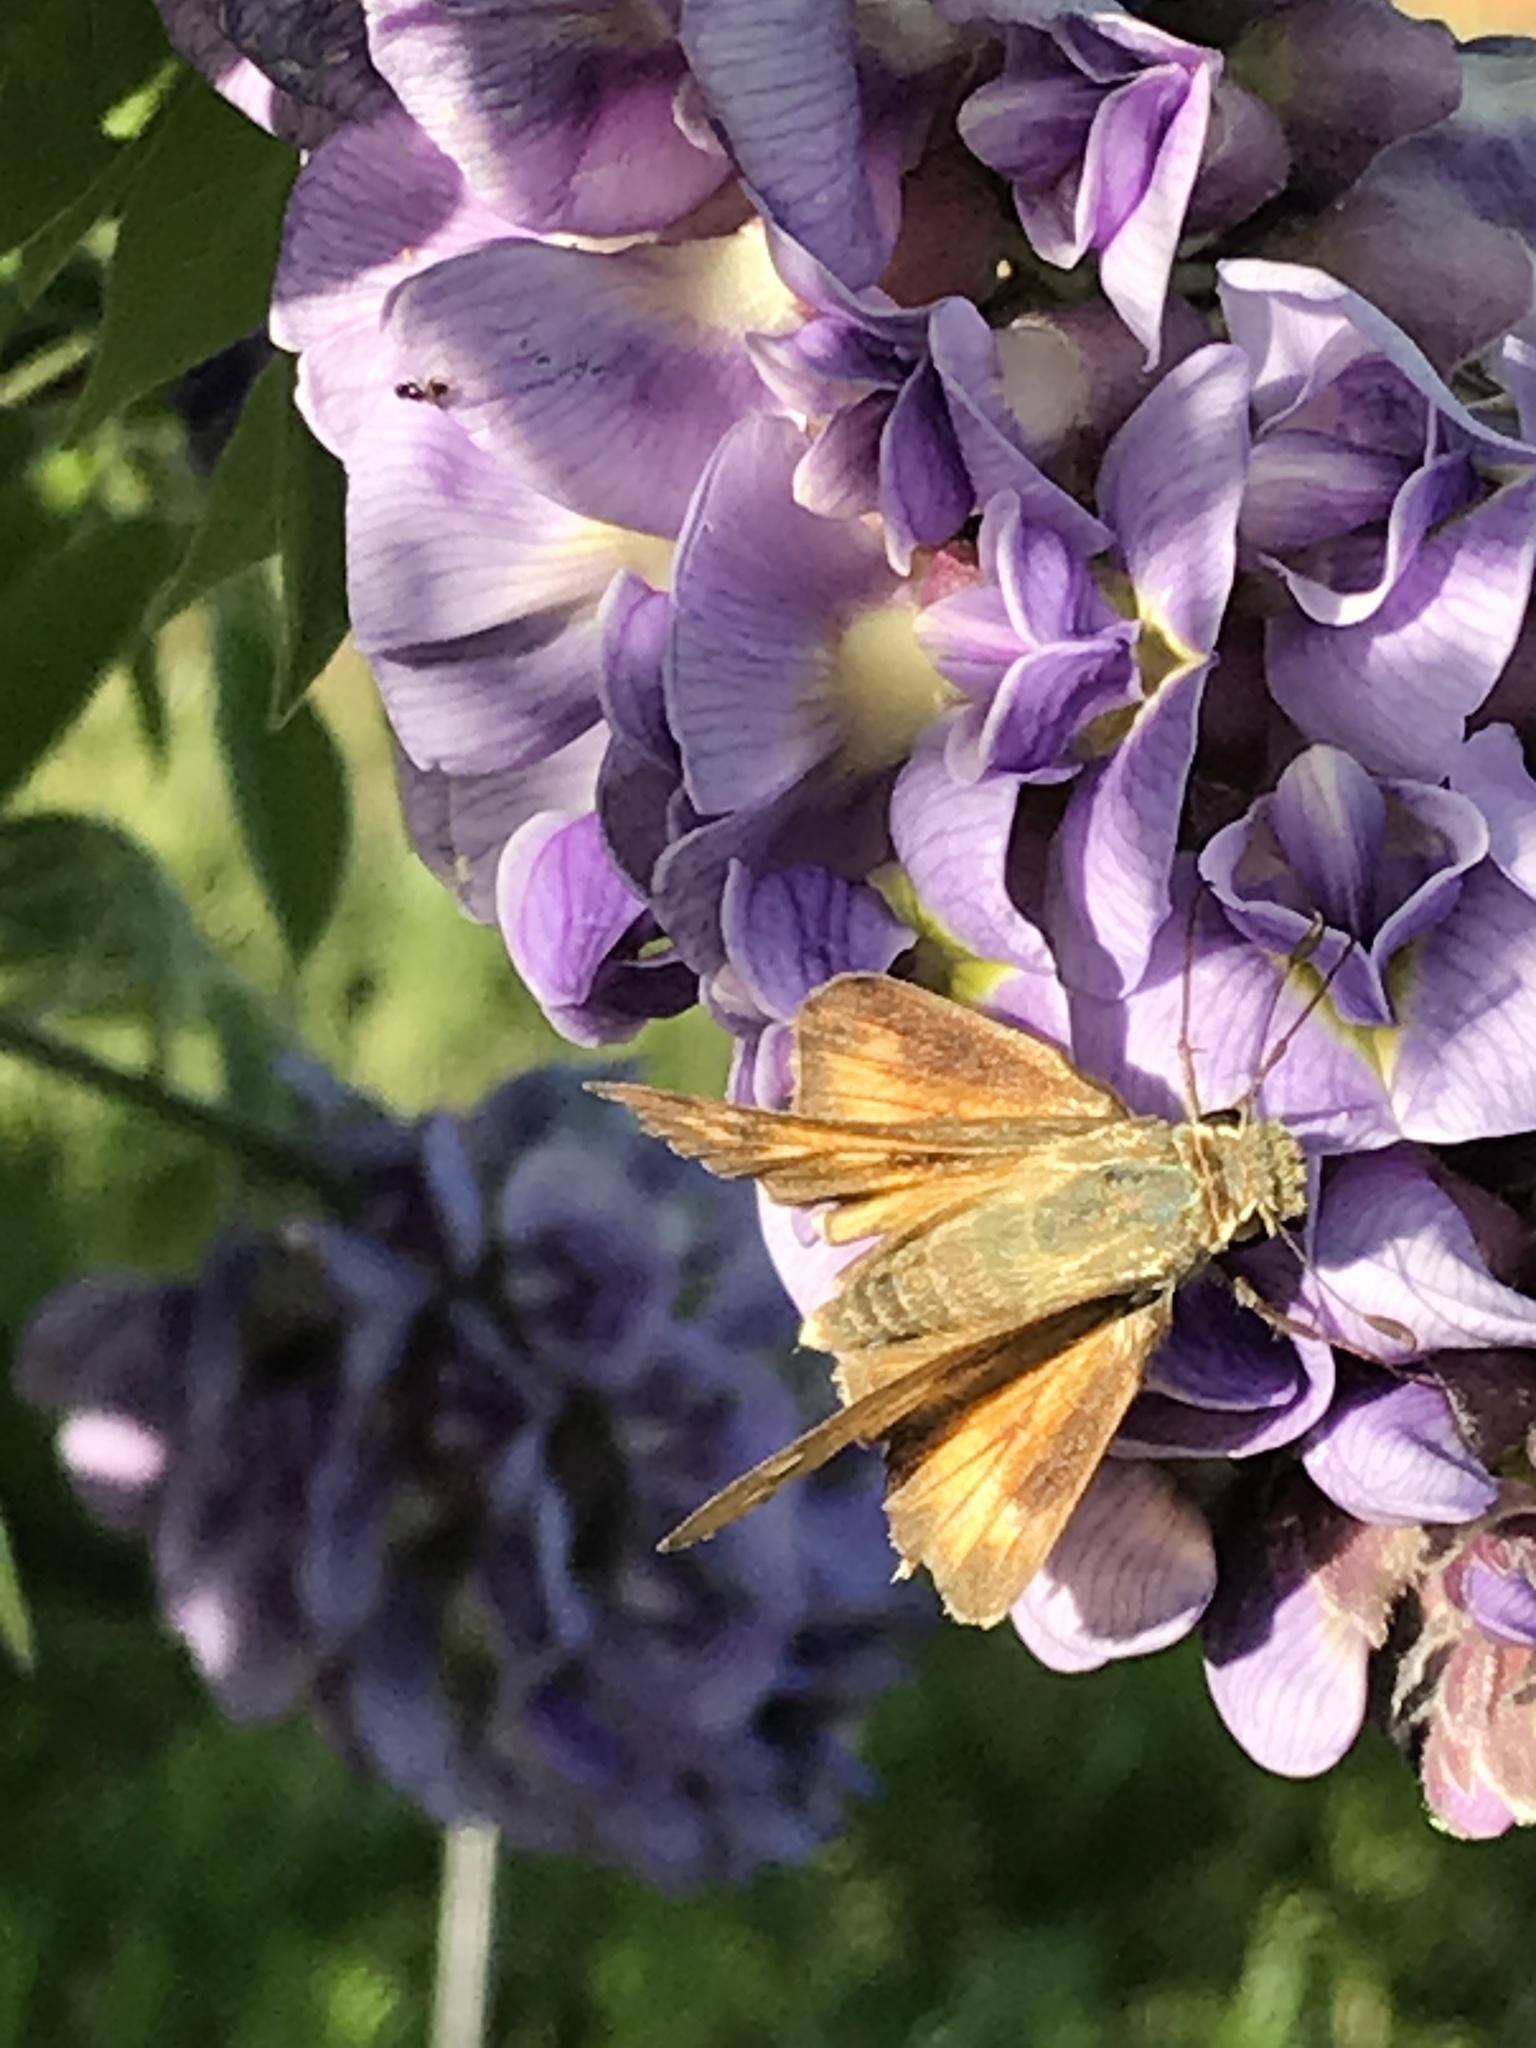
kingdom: Animalia
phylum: Arthropoda
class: Insecta
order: Lepidoptera
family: Hesperiidae
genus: Atalopedes
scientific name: Atalopedes
